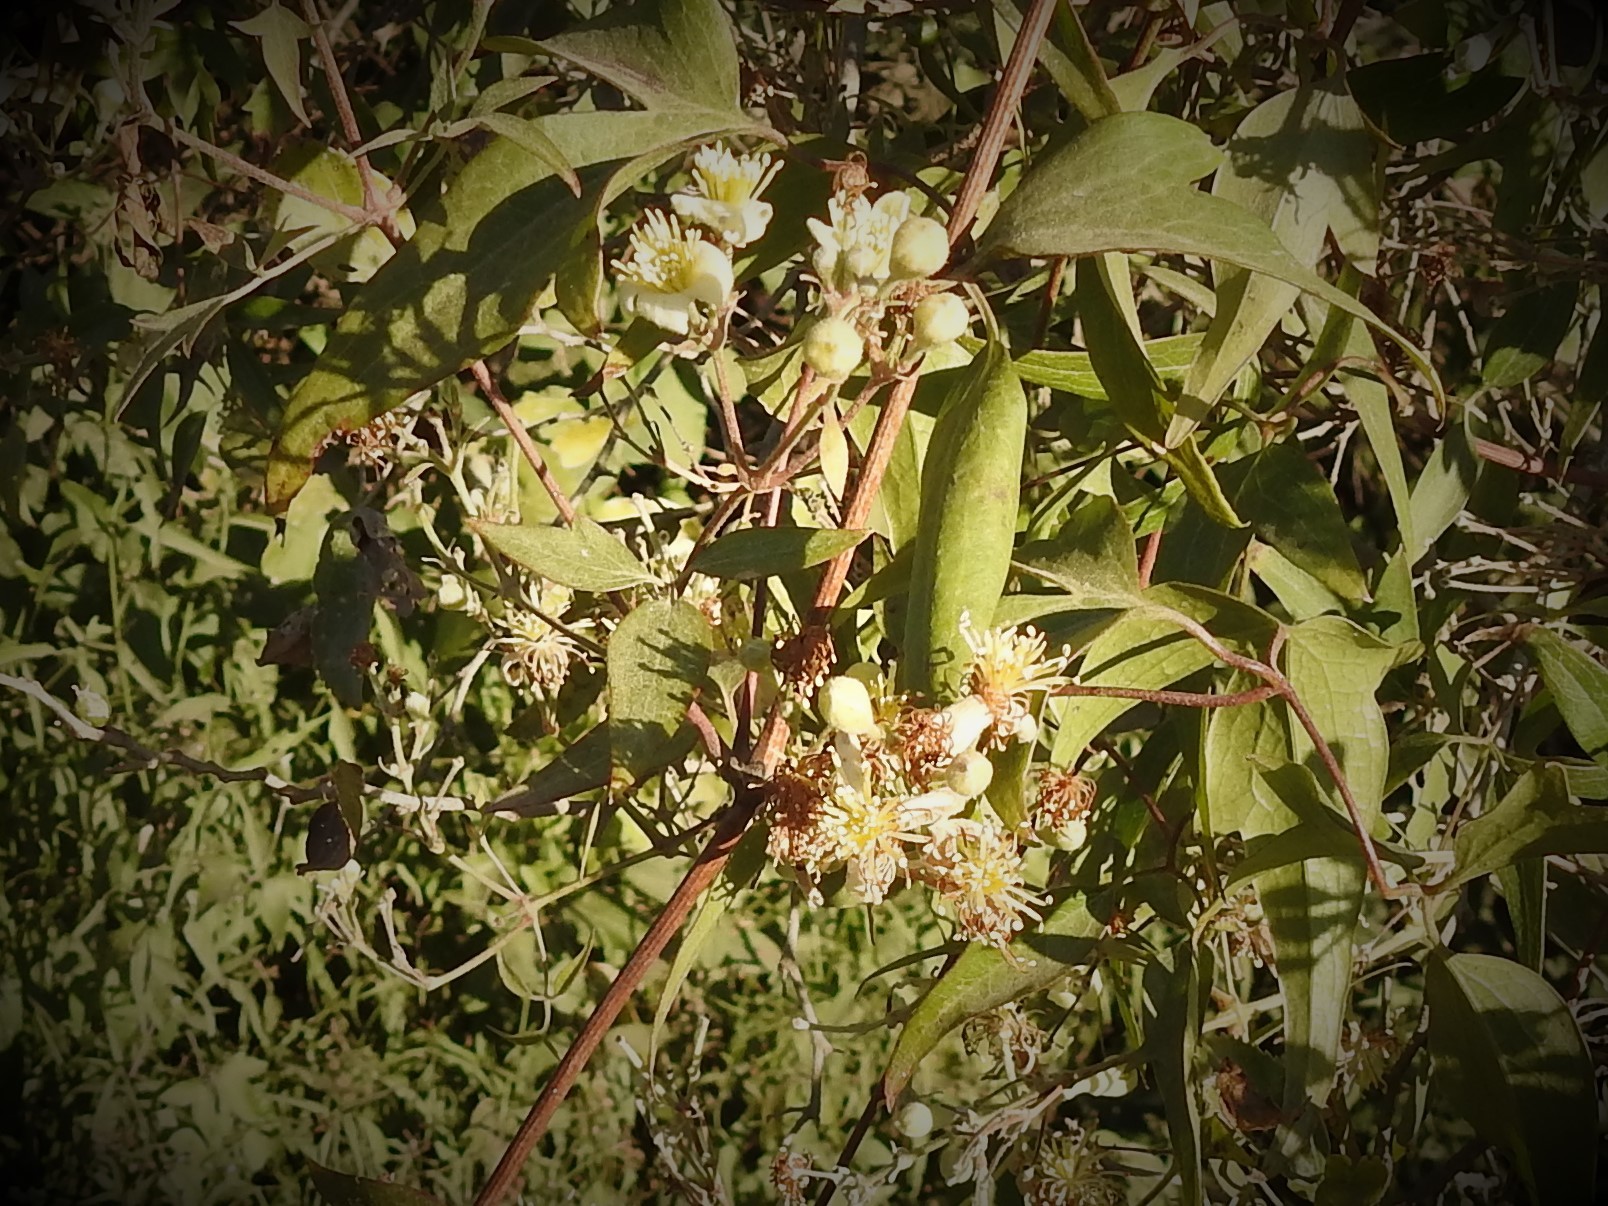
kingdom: Plantae
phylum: Tracheophyta
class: Magnoliopsida
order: Ranunculales
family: Ranunculaceae
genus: Clematis
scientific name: Clematis montevidensis
